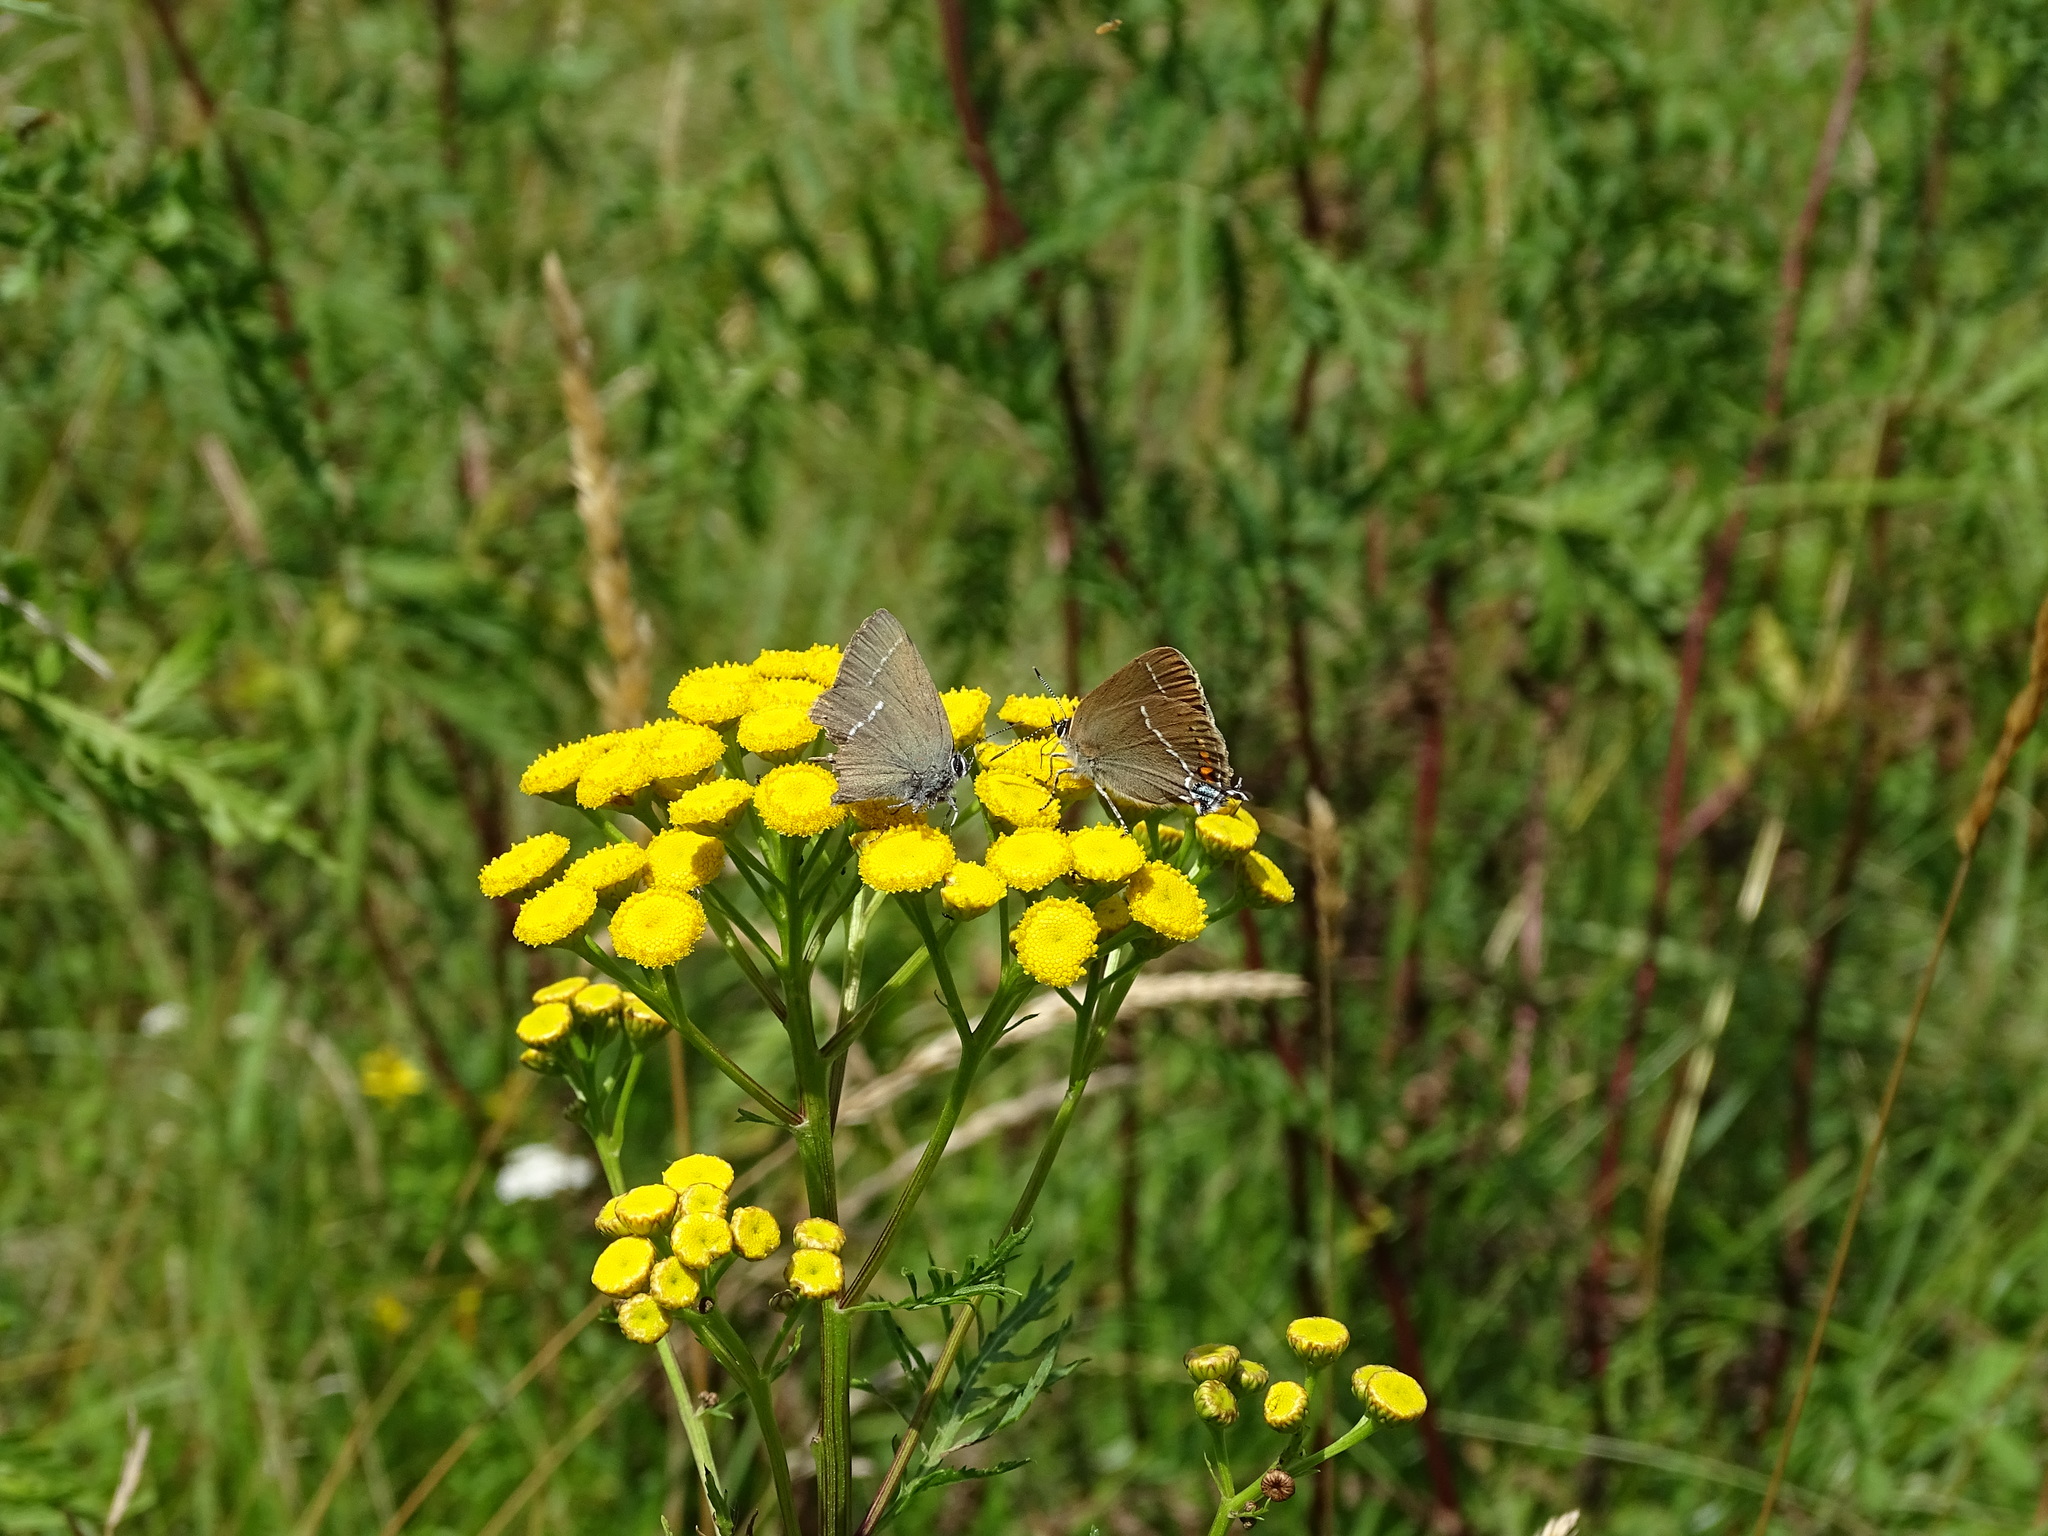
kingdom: Animalia
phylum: Arthropoda
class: Insecta
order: Lepidoptera
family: Lycaenidae
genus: Tuttiola
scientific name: Tuttiola spini
